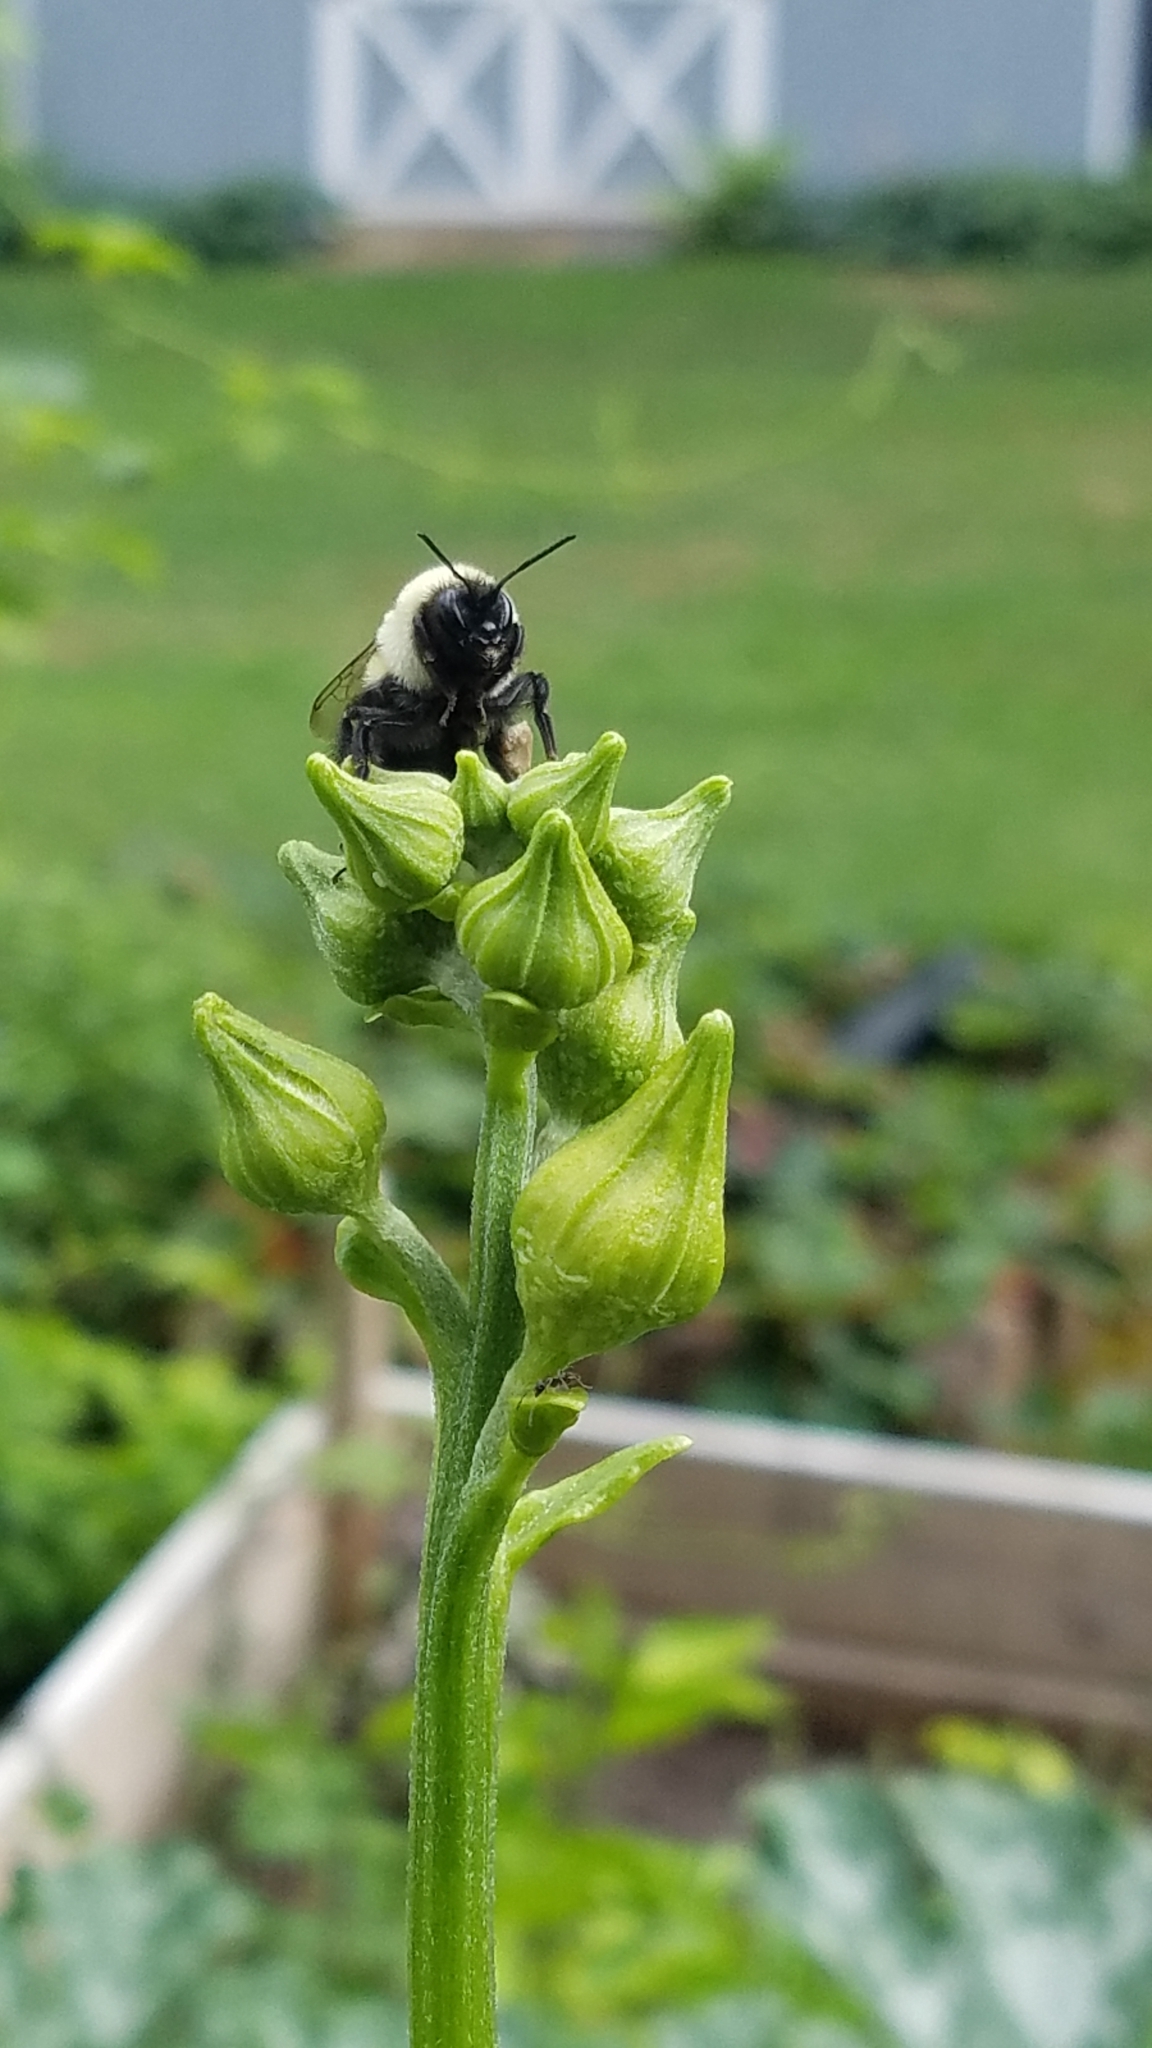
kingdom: Animalia
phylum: Arthropoda
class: Insecta
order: Hymenoptera
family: Apidae
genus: Bombus
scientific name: Bombus impatiens
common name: Common eastern bumble bee
